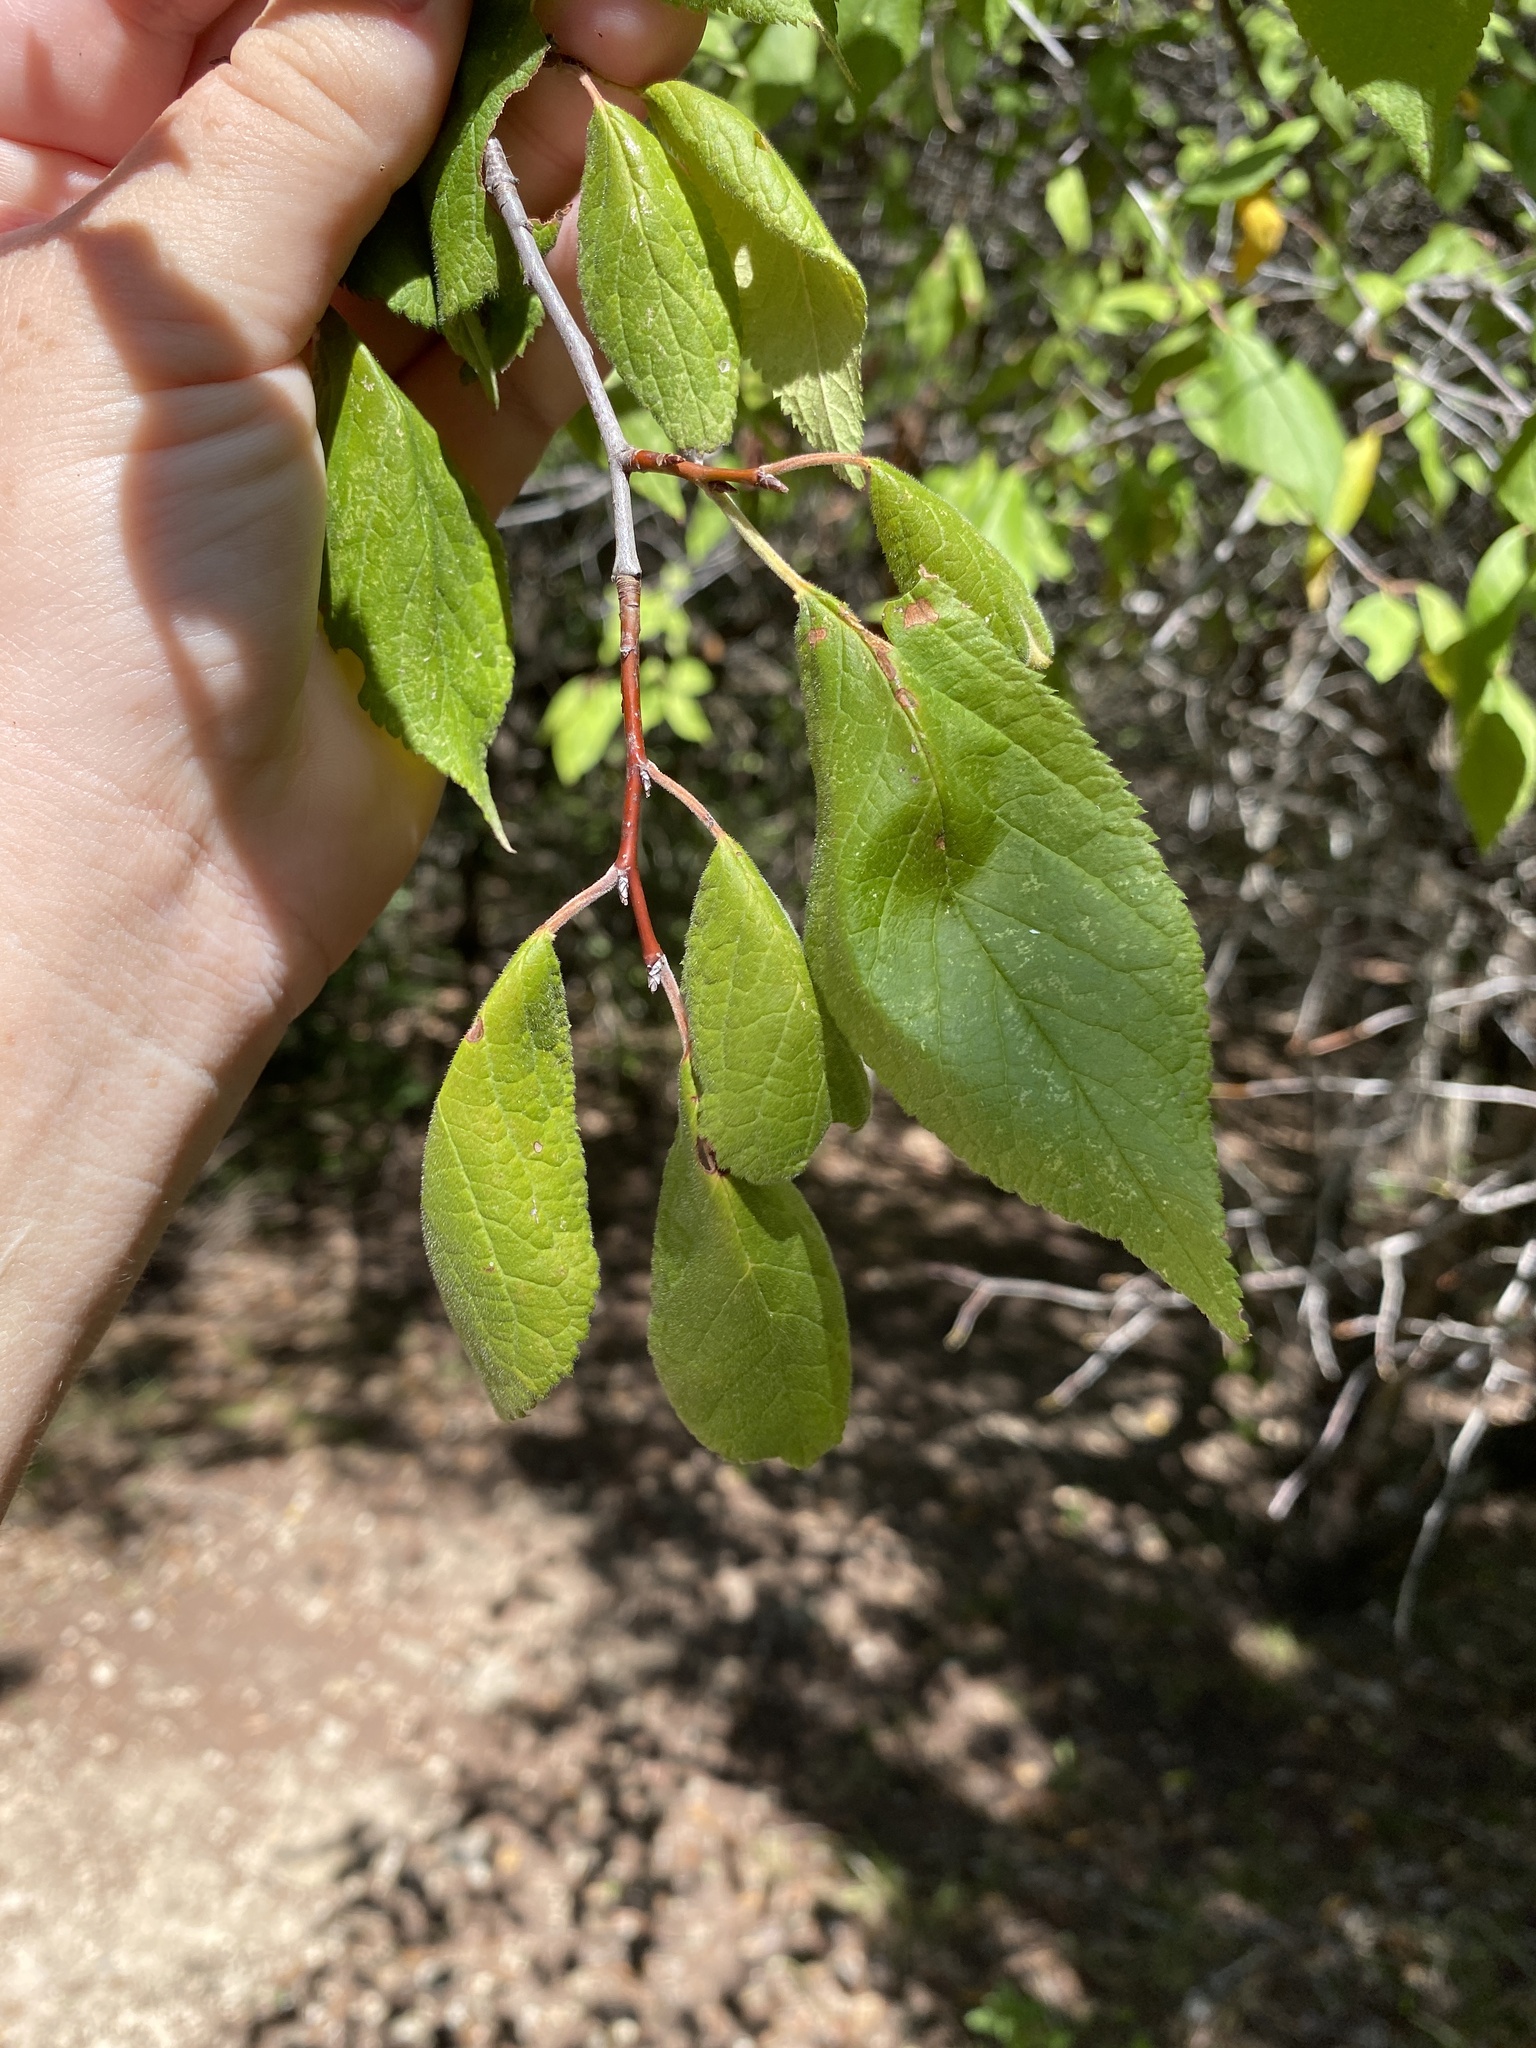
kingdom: Plantae
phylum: Tracheophyta
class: Magnoliopsida
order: Rosales
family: Rosaceae
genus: Prunus
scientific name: Prunus mexicana
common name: Mexican plum
